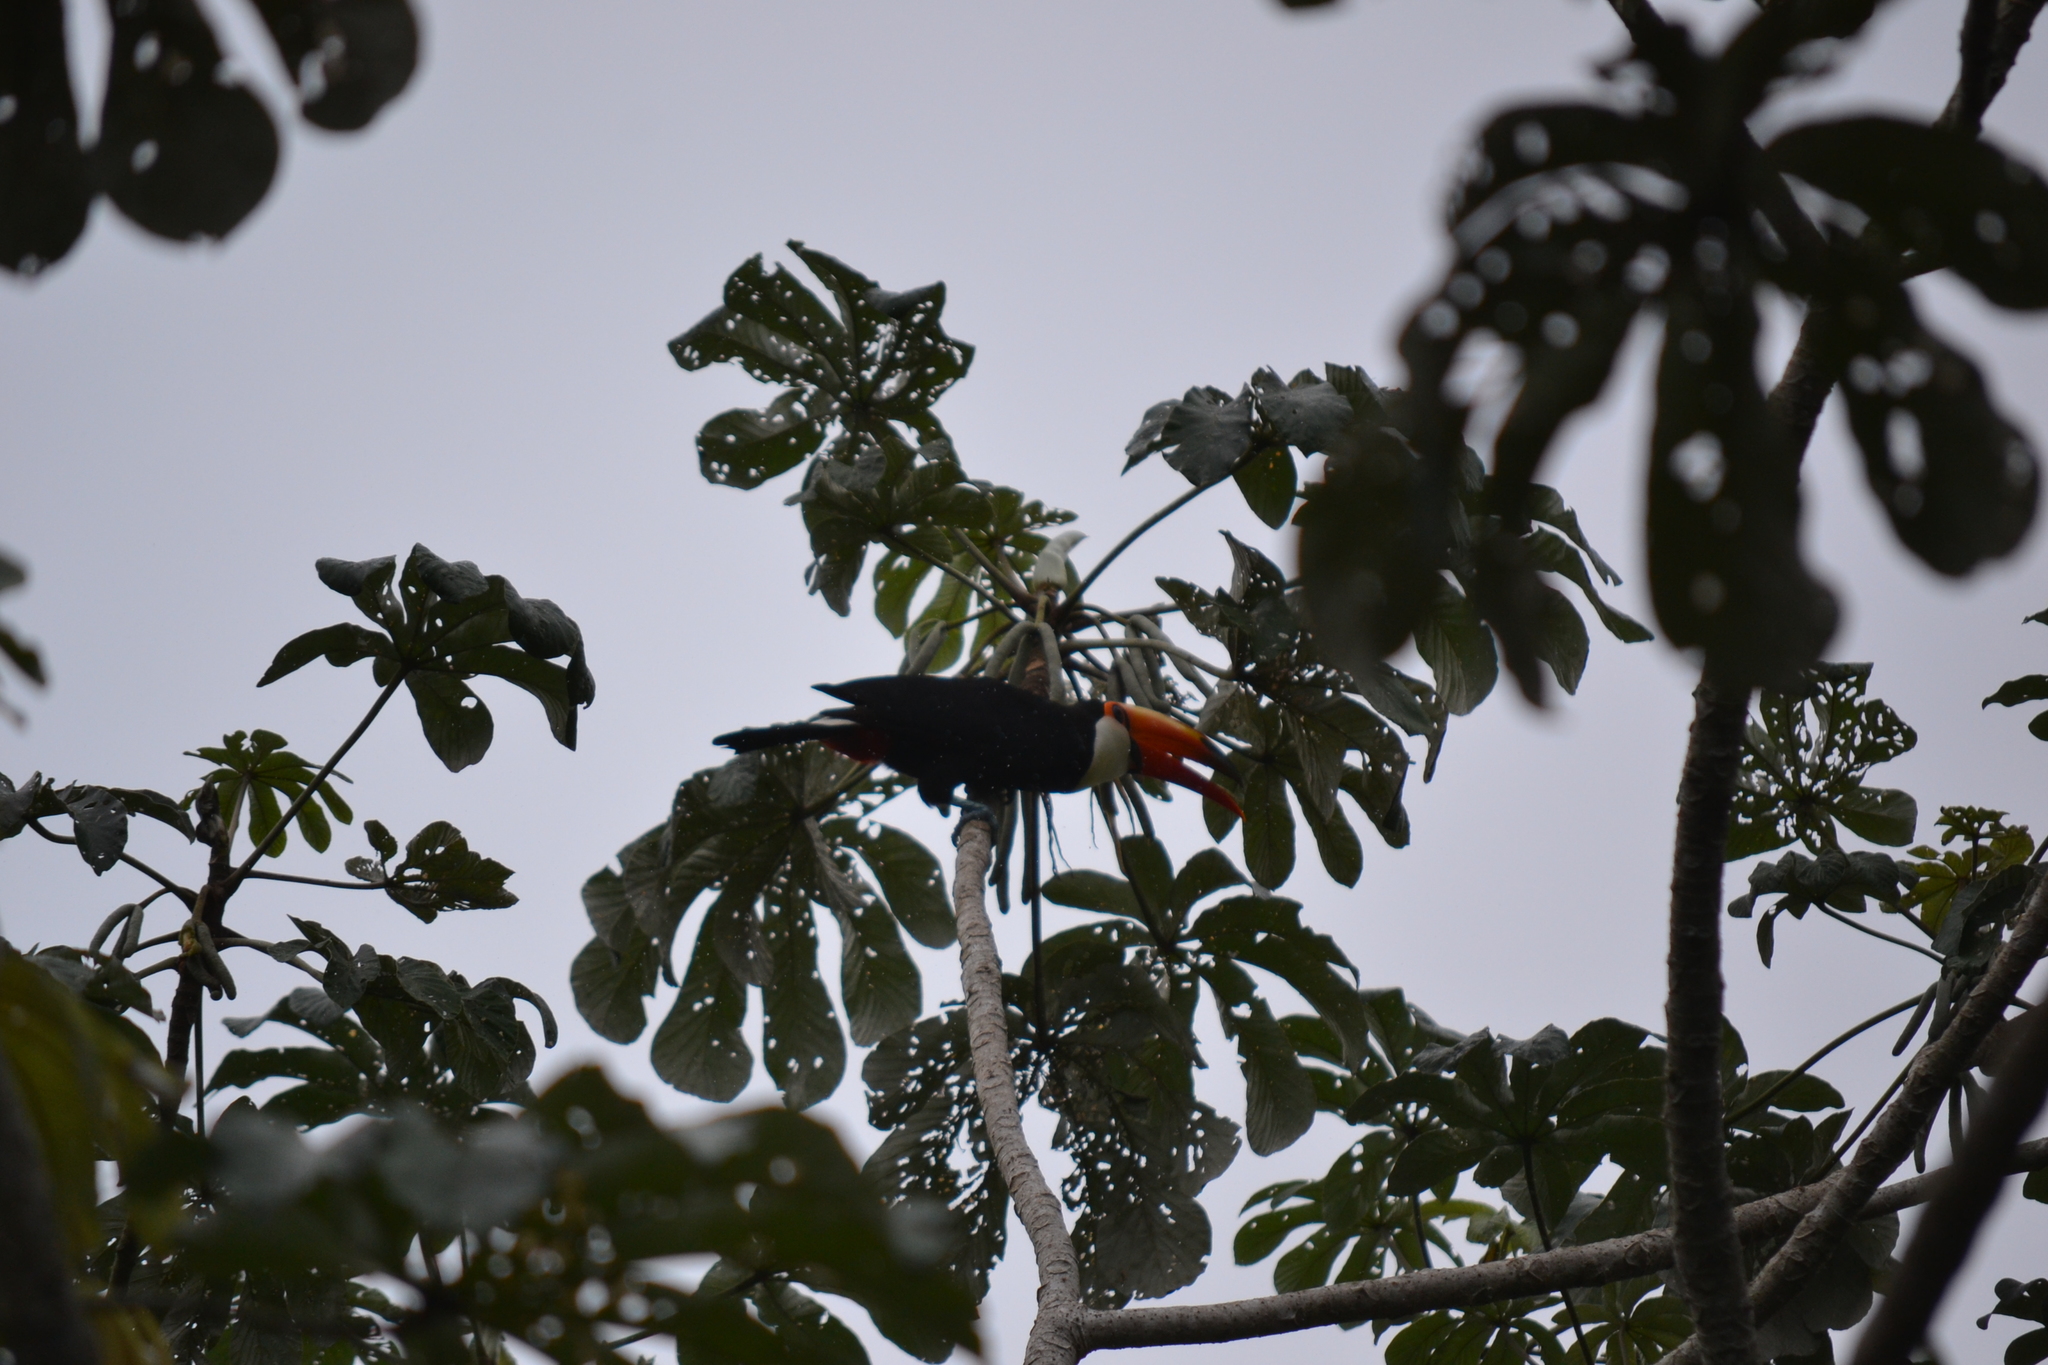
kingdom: Animalia
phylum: Chordata
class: Aves
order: Piciformes
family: Ramphastidae
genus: Ramphastos
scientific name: Ramphastos toco
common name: Toco toucan
